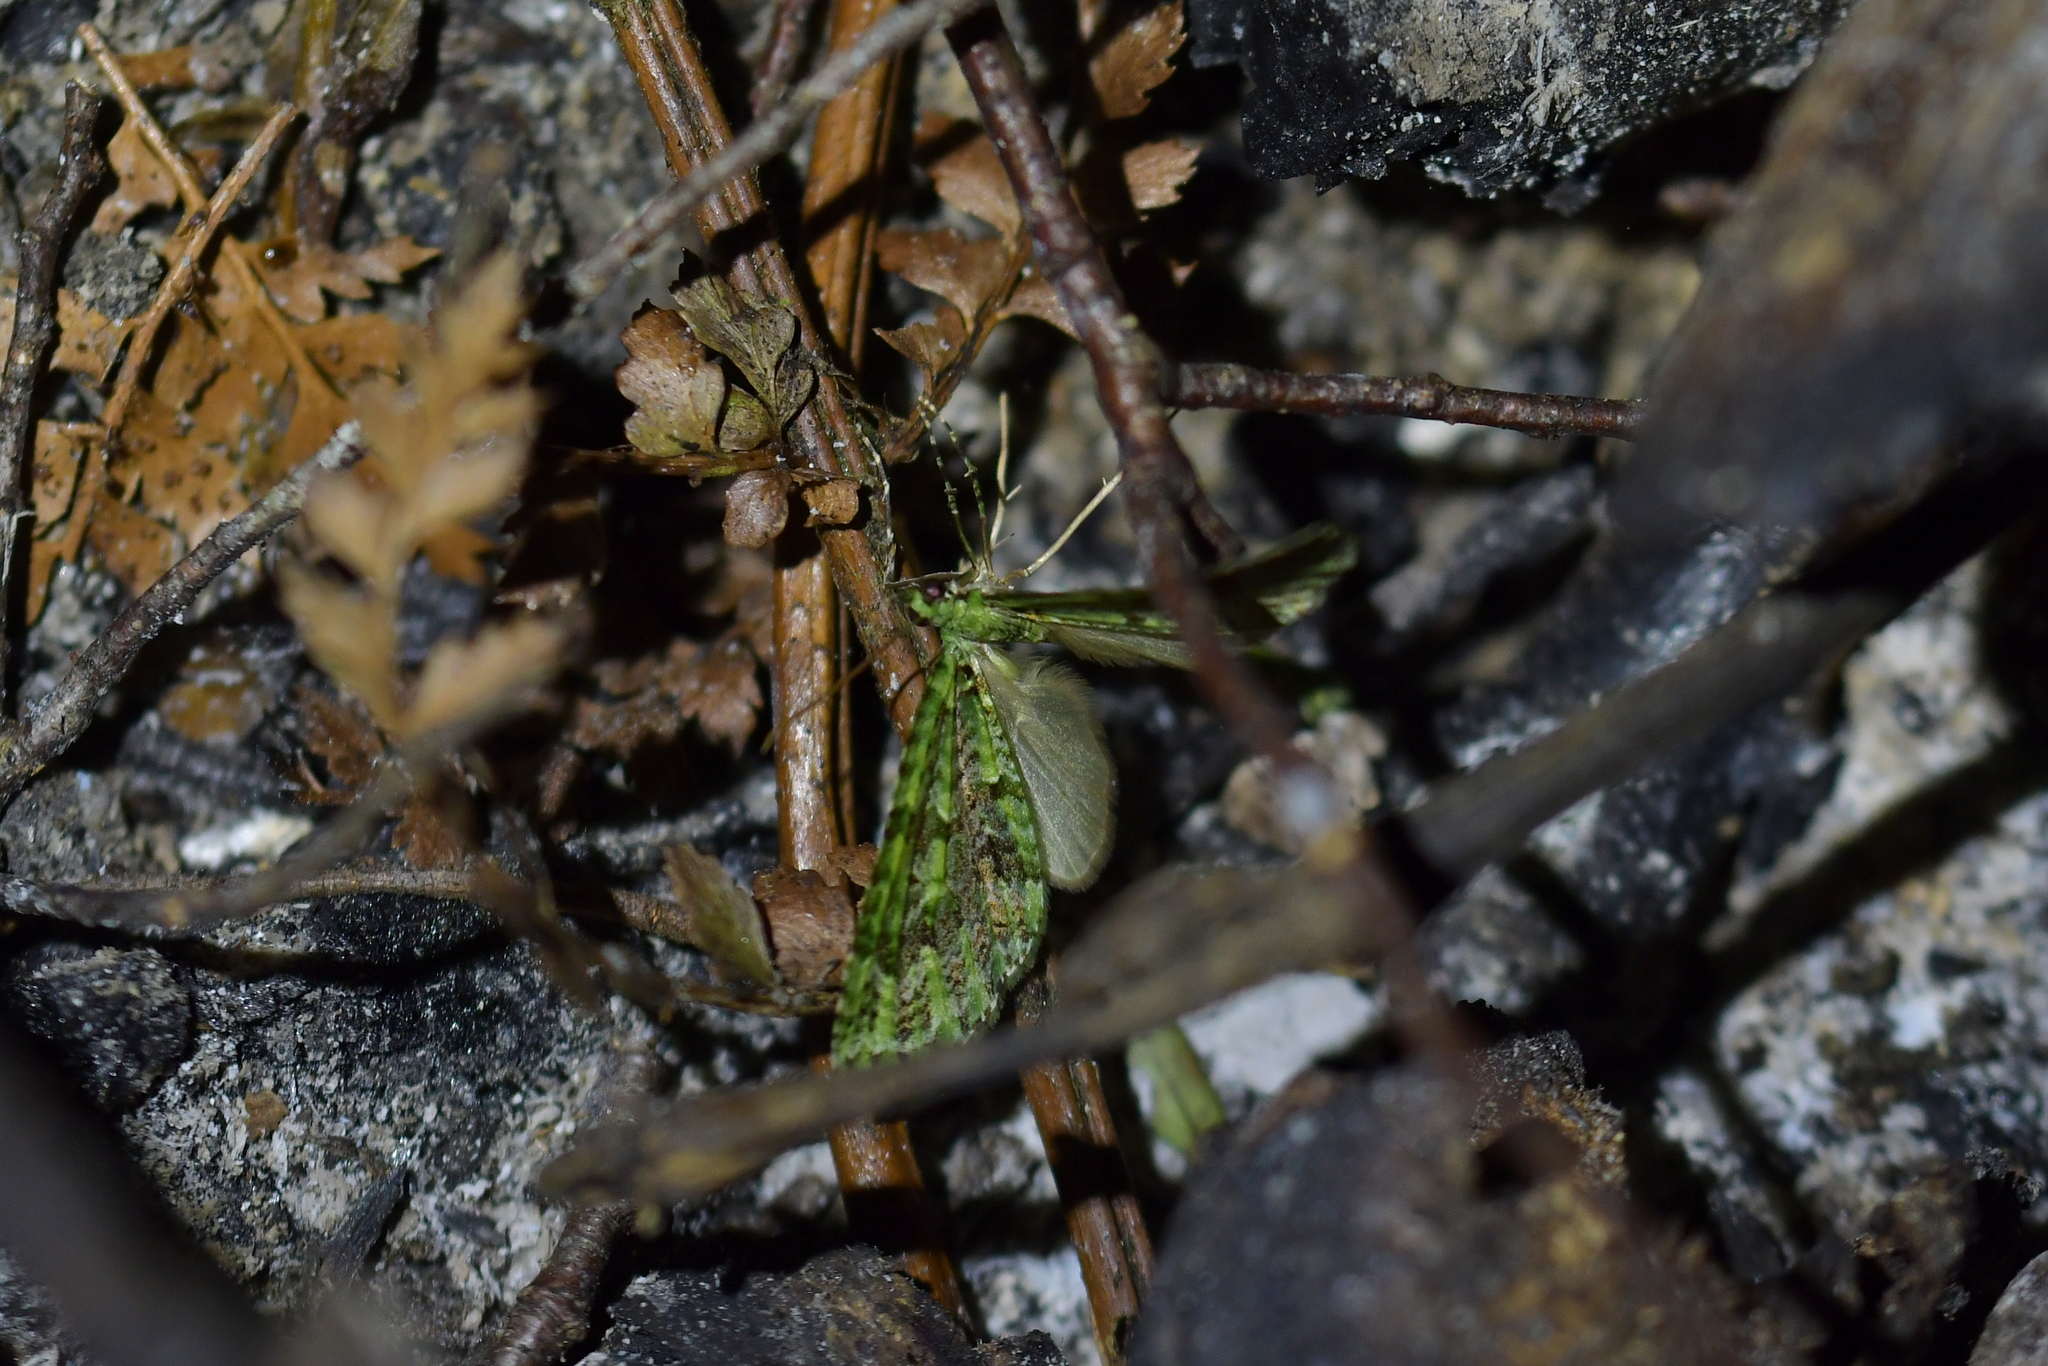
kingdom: Animalia
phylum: Arthropoda
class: Insecta
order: Lepidoptera
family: Geometridae
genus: Tatosoma
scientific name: Tatosoma tipulata
